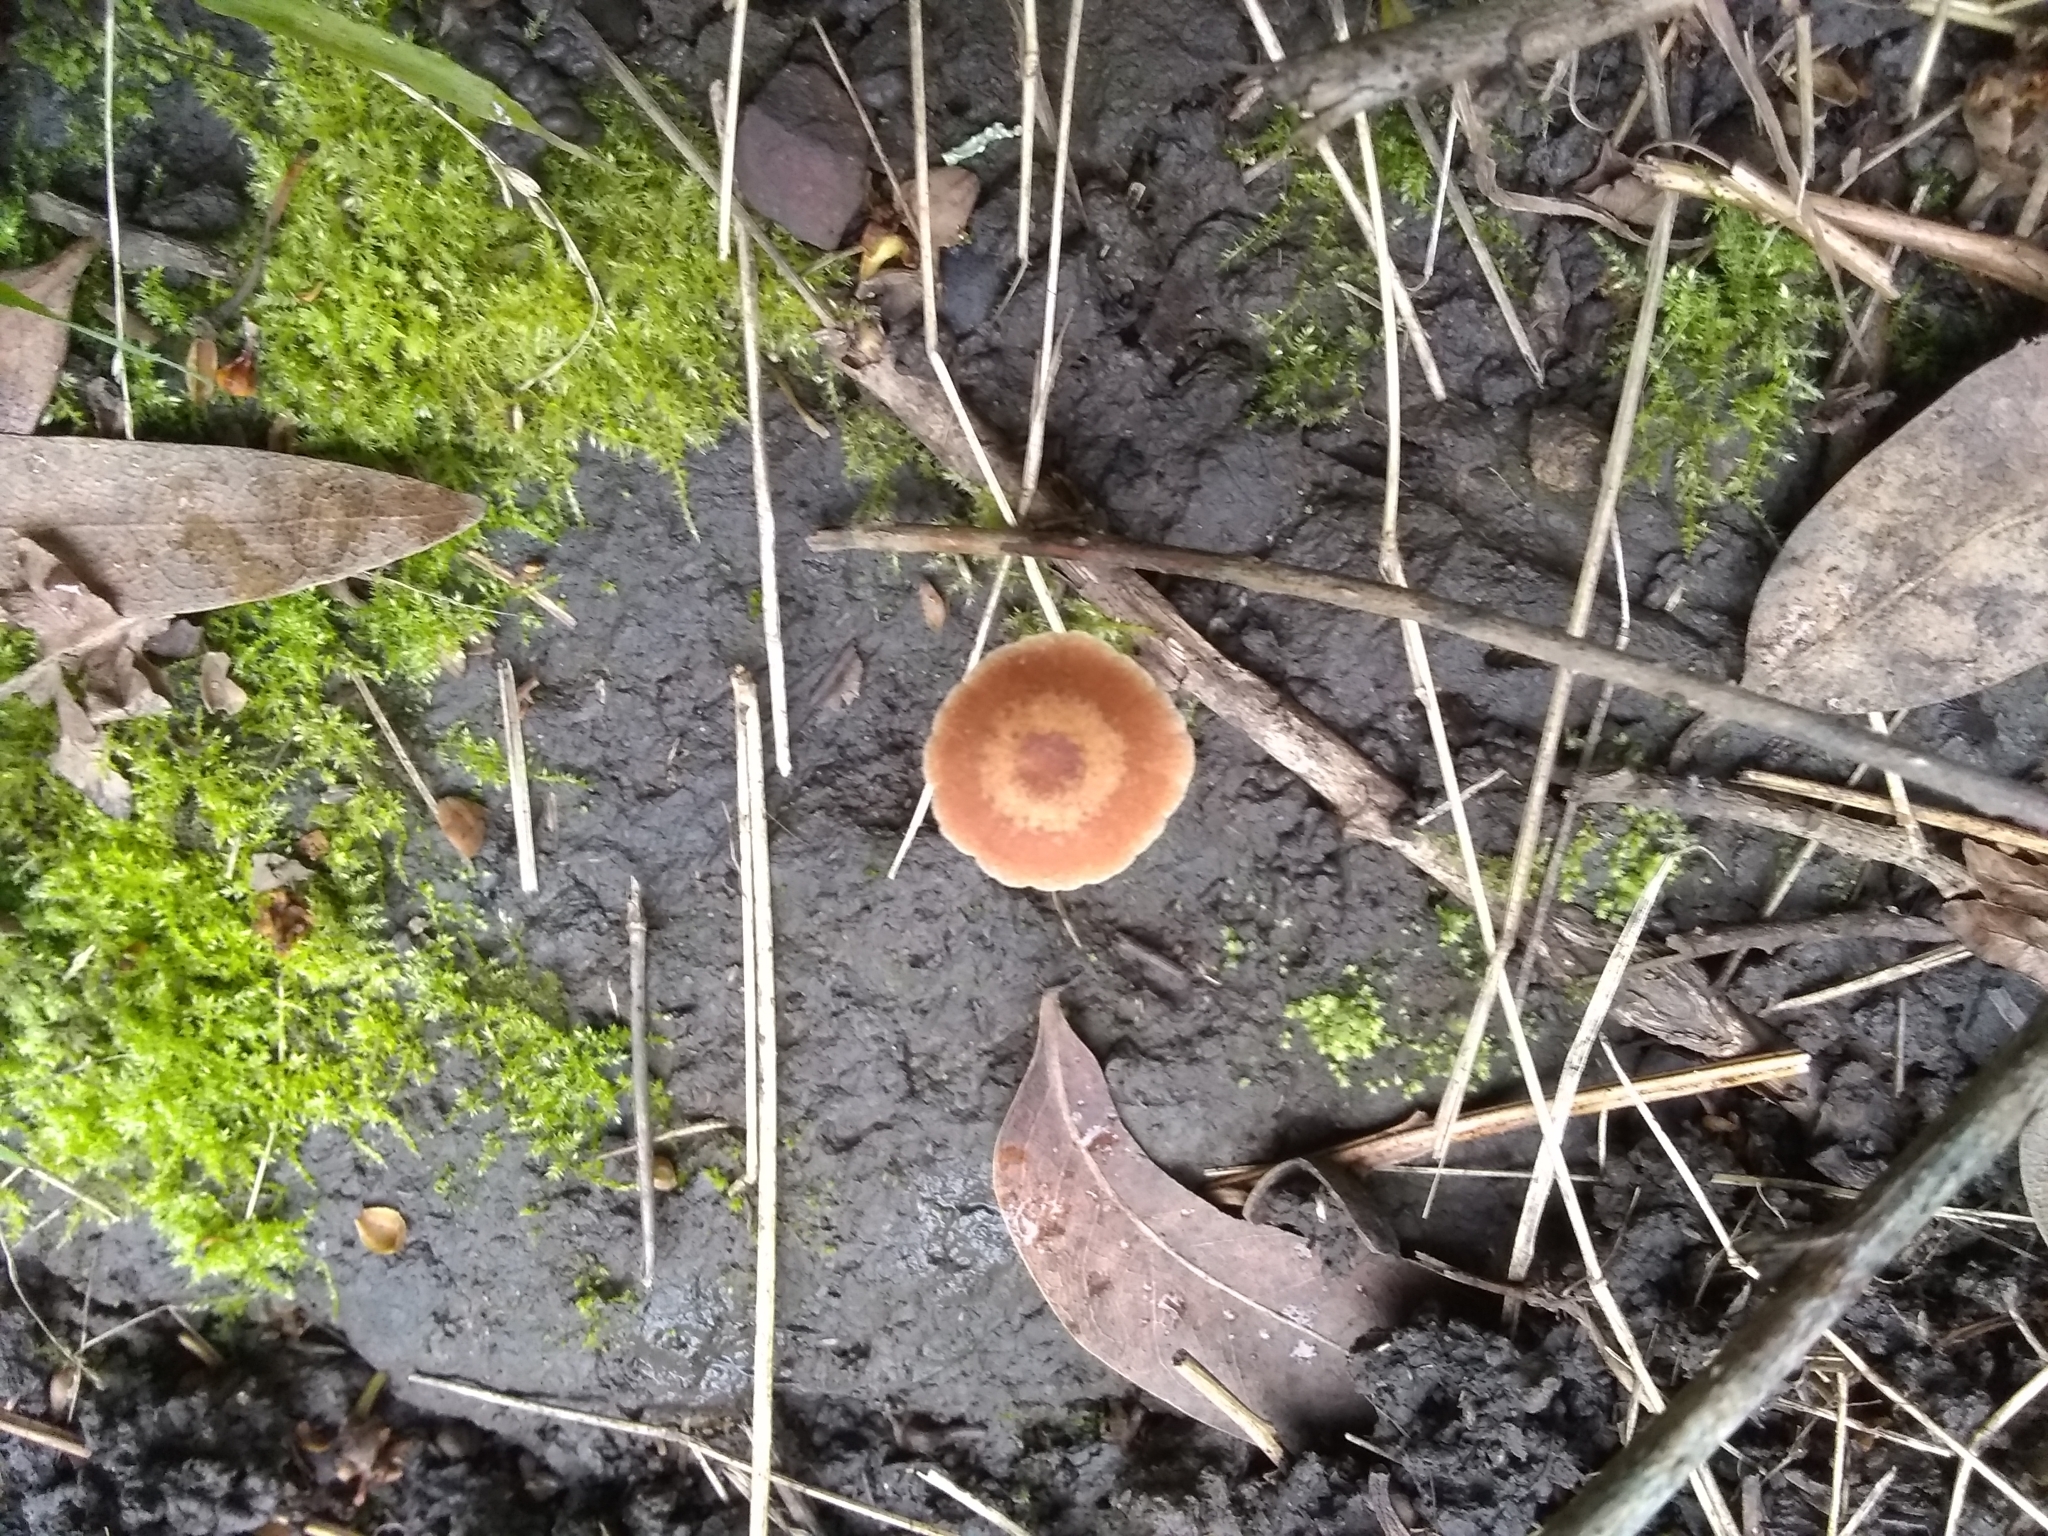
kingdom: Fungi
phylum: Basidiomycota
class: Agaricomycetes
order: Agaricales
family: Tubariaceae
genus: Tubaria
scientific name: Tubaria furfuracea
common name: Scurfy twiglet
